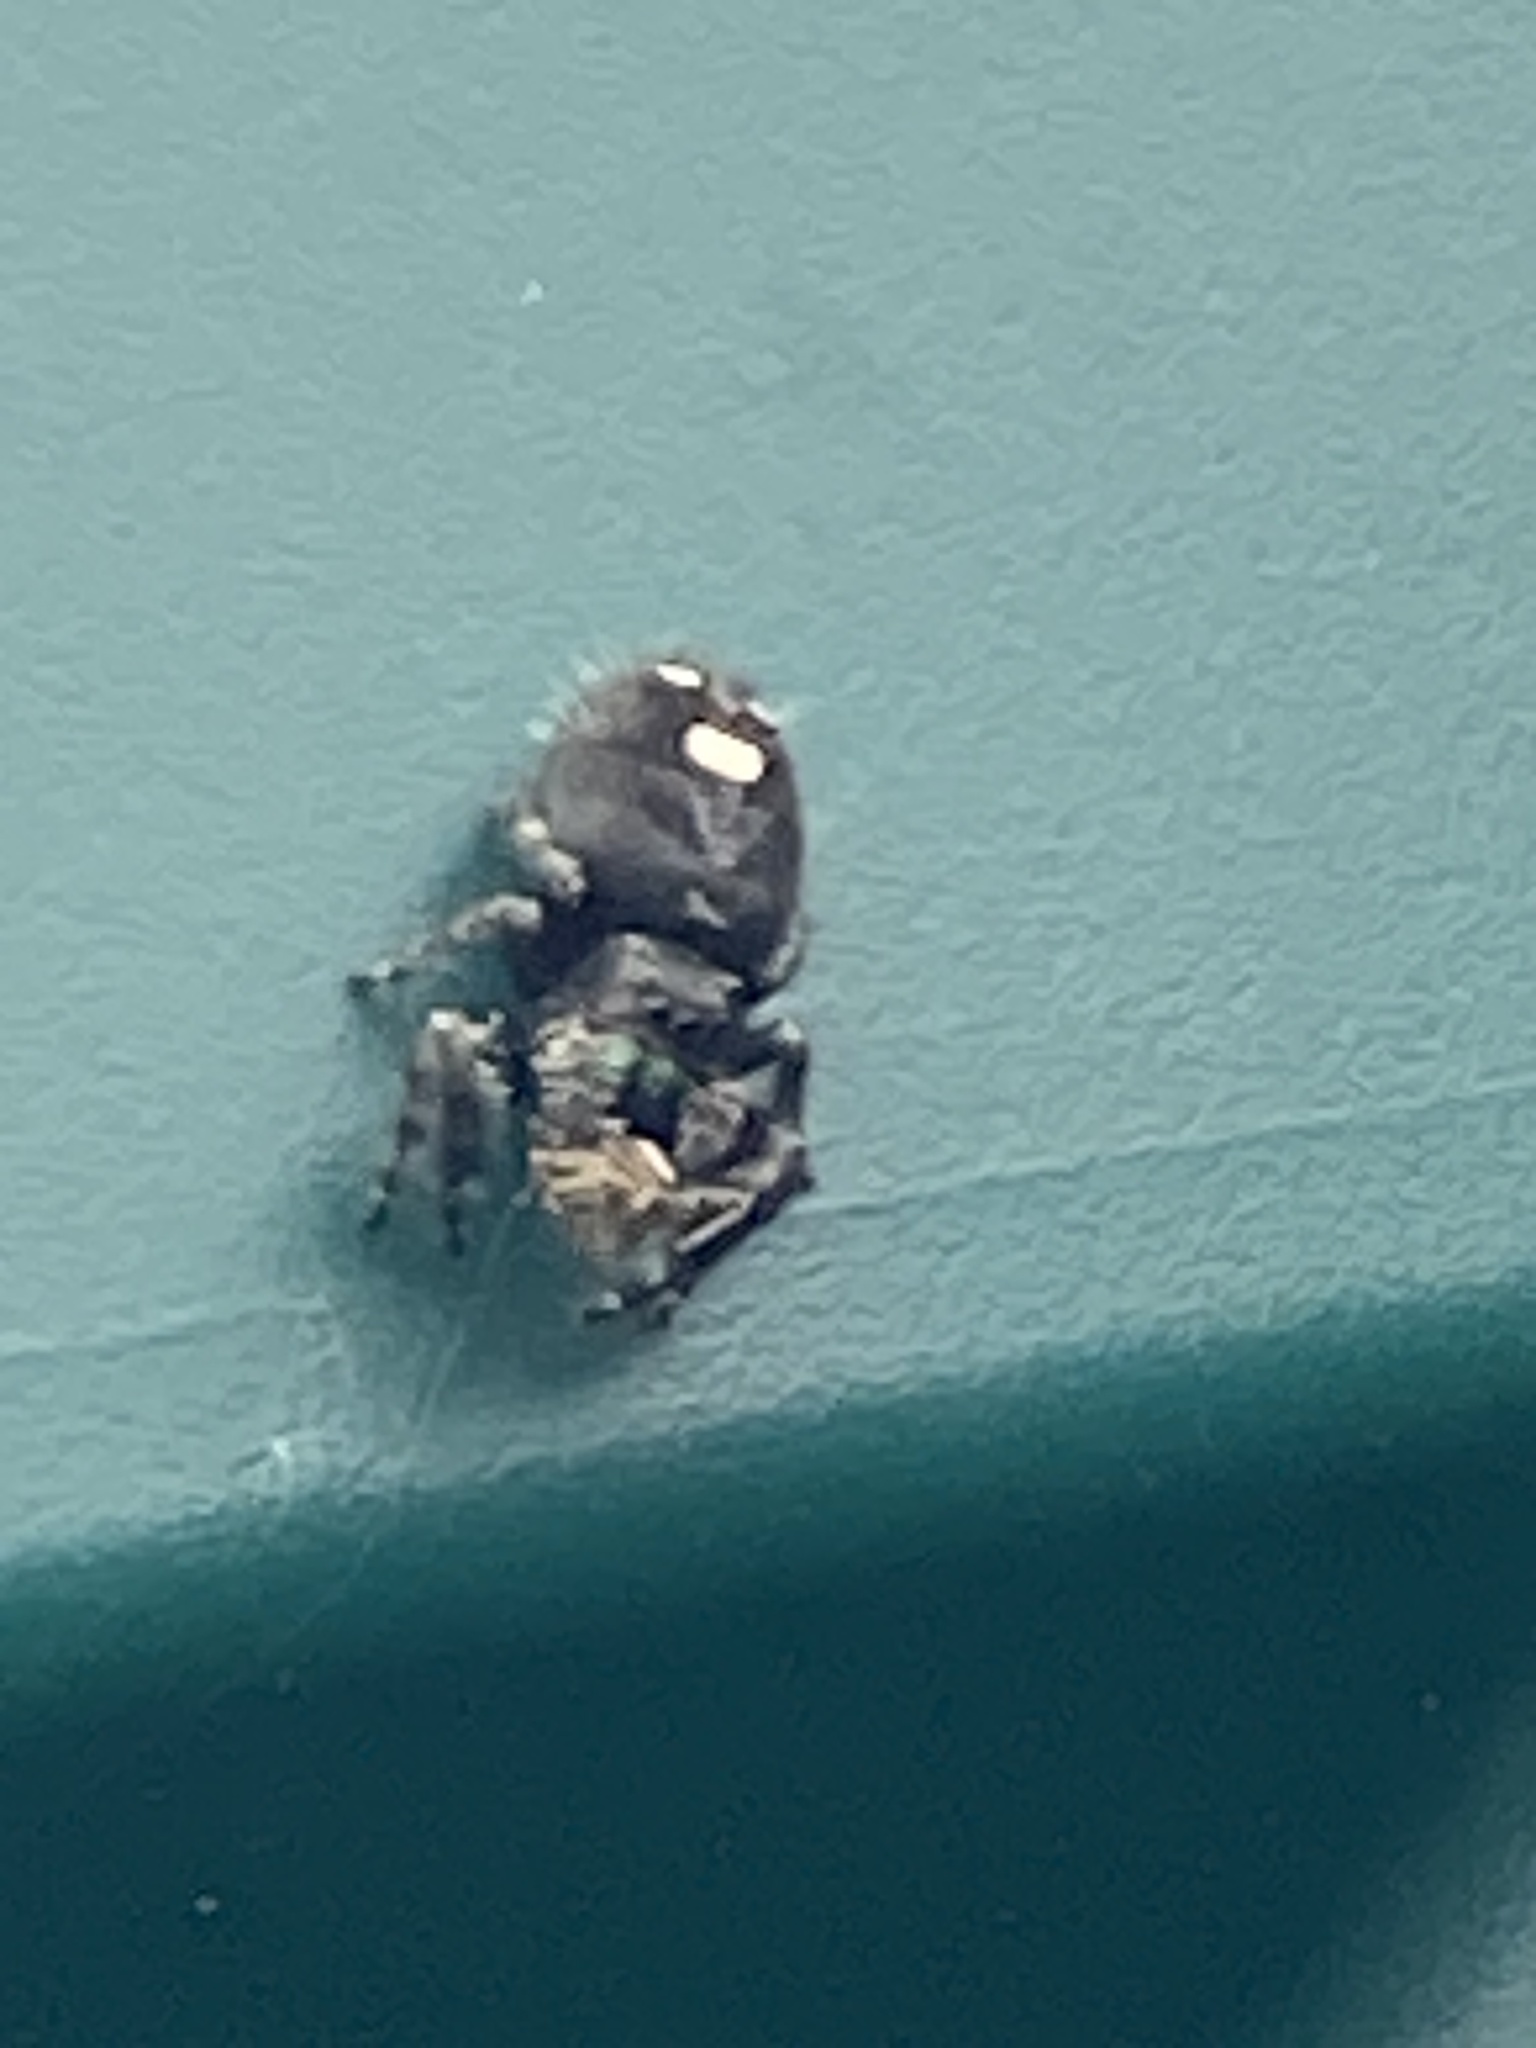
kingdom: Animalia
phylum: Arthropoda
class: Arachnida
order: Araneae
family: Salticidae
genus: Phidippus
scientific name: Phidippus audax
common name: Bold jumper
